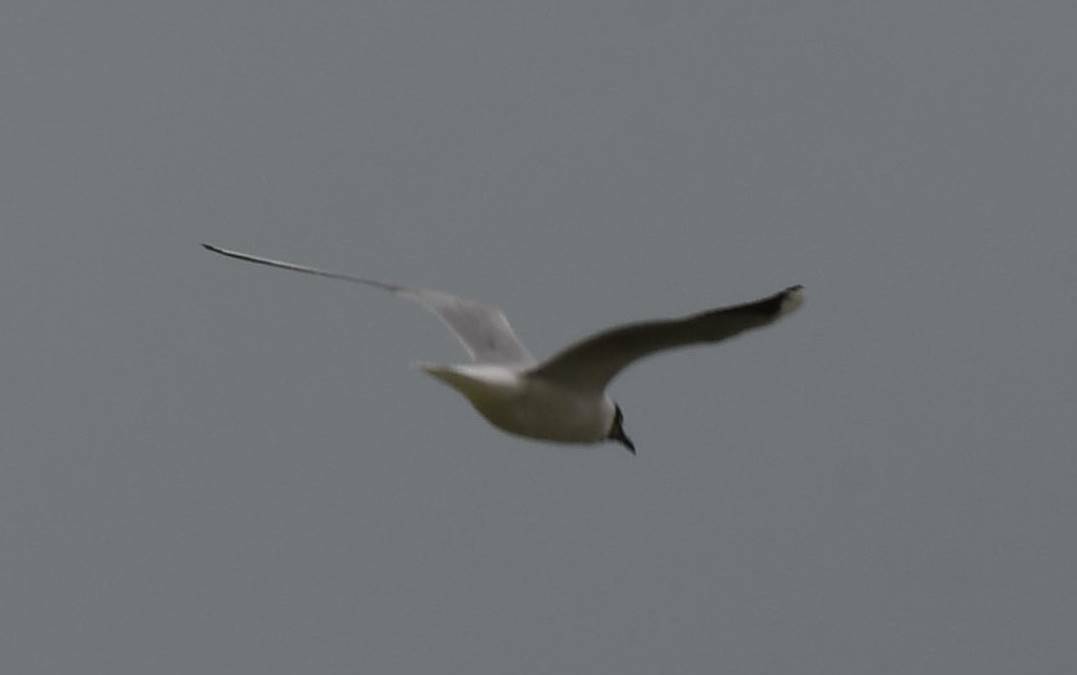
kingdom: Animalia
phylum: Chordata
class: Aves
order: Charadriiformes
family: Laridae
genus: Chroicocephalus
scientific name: Chroicocephalus ridibundus
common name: Black-headed gull
